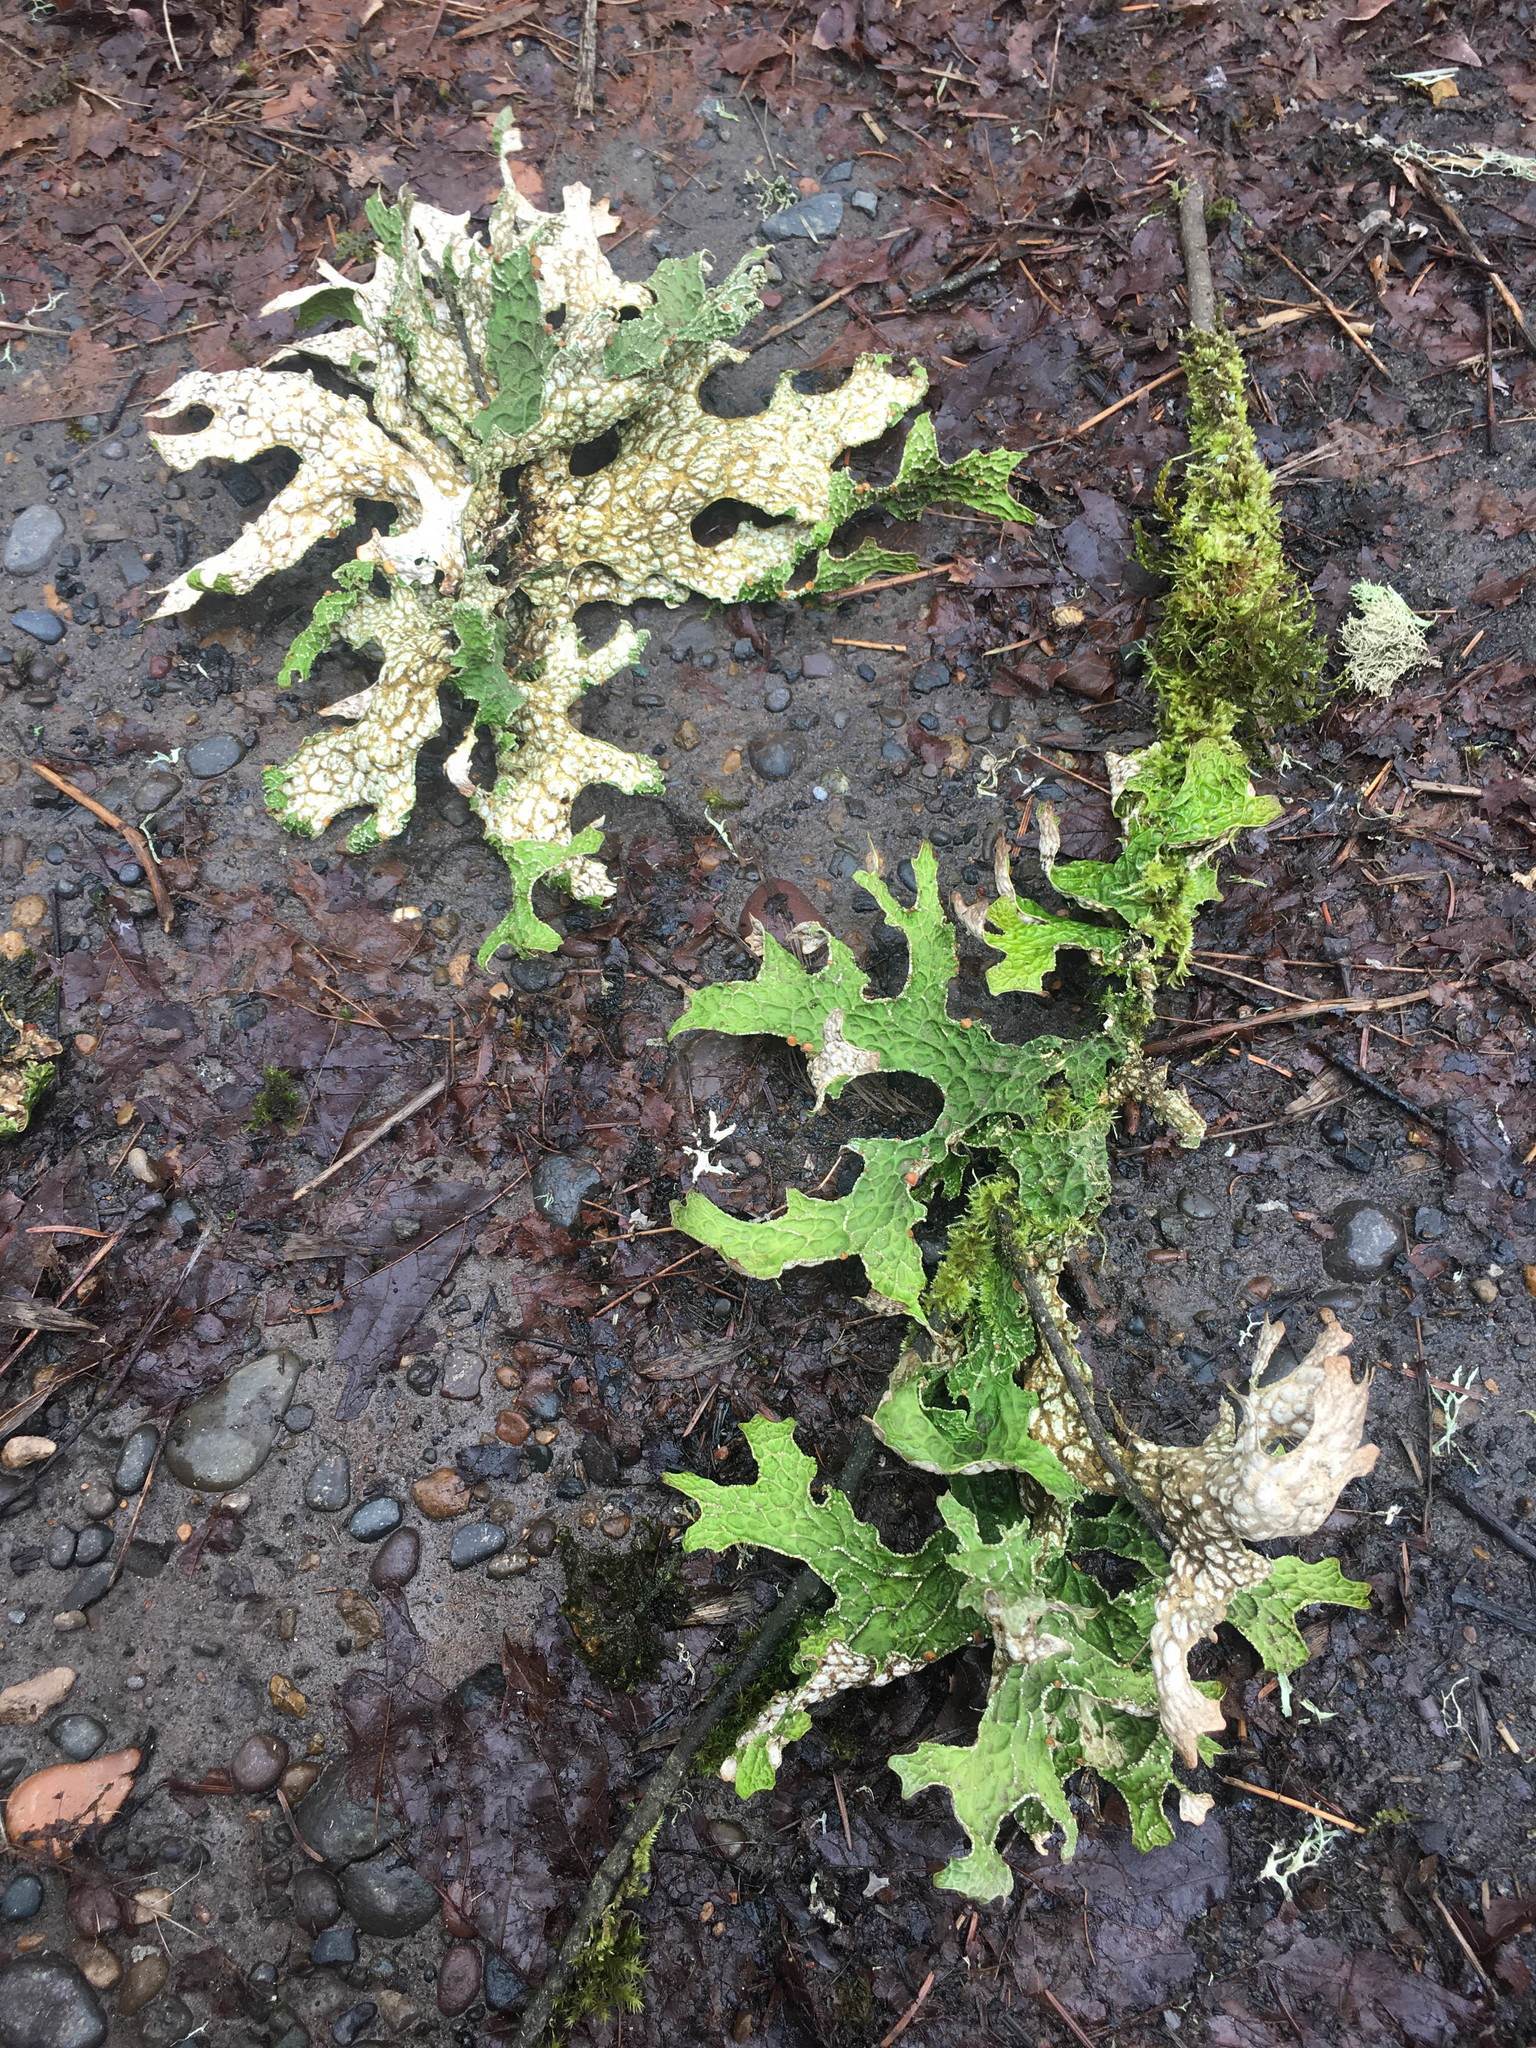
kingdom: Fungi
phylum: Ascomycota
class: Lecanoromycetes
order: Peltigerales
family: Lobariaceae
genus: Lobaria
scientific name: Lobaria pulmonaria
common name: Lungwort
